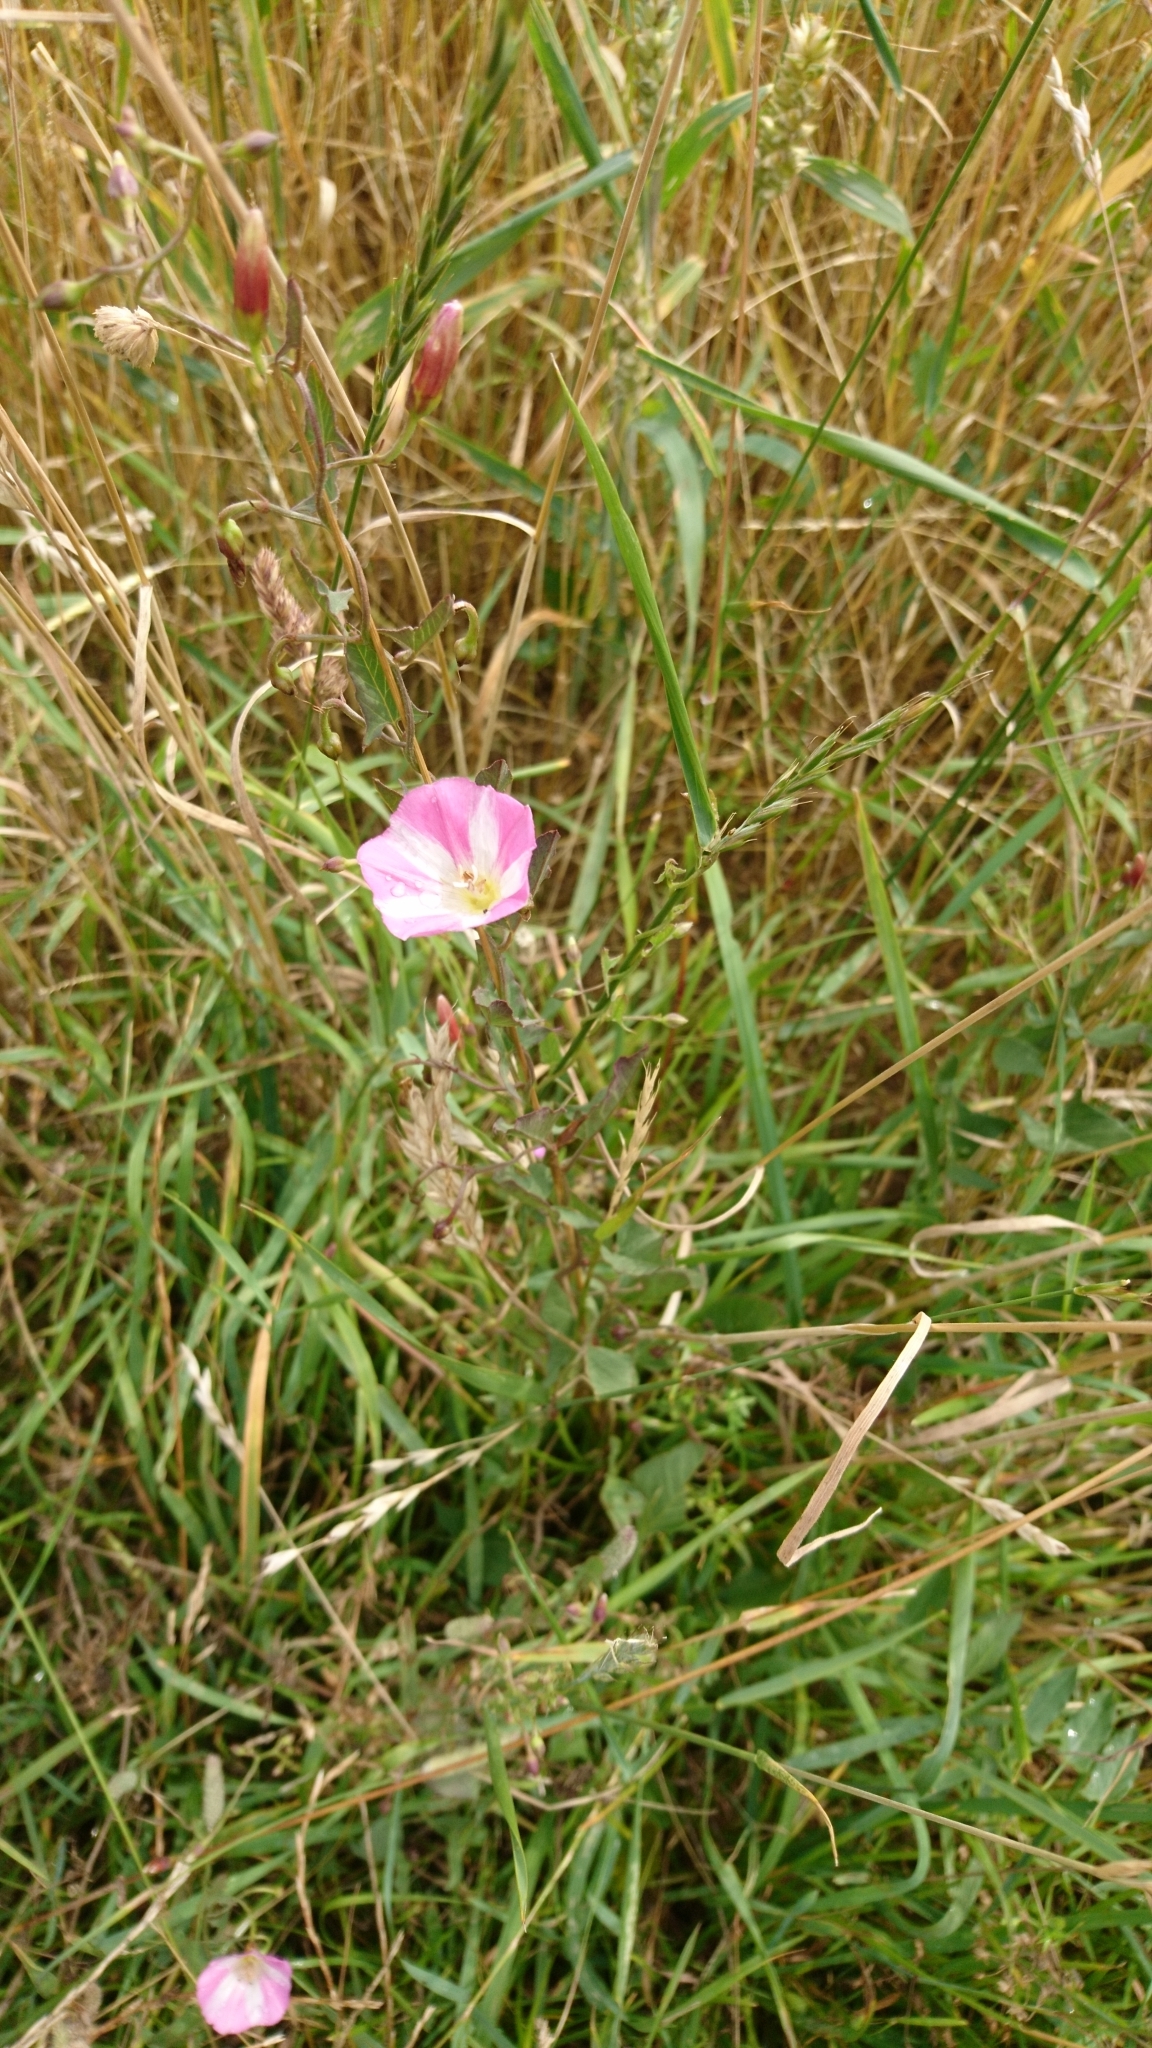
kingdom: Plantae
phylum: Tracheophyta
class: Magnoliopsida
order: Solanales
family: Convolvulaceae
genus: Convolvulus
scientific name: Convolvulus arvensis
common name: Field bindweed
